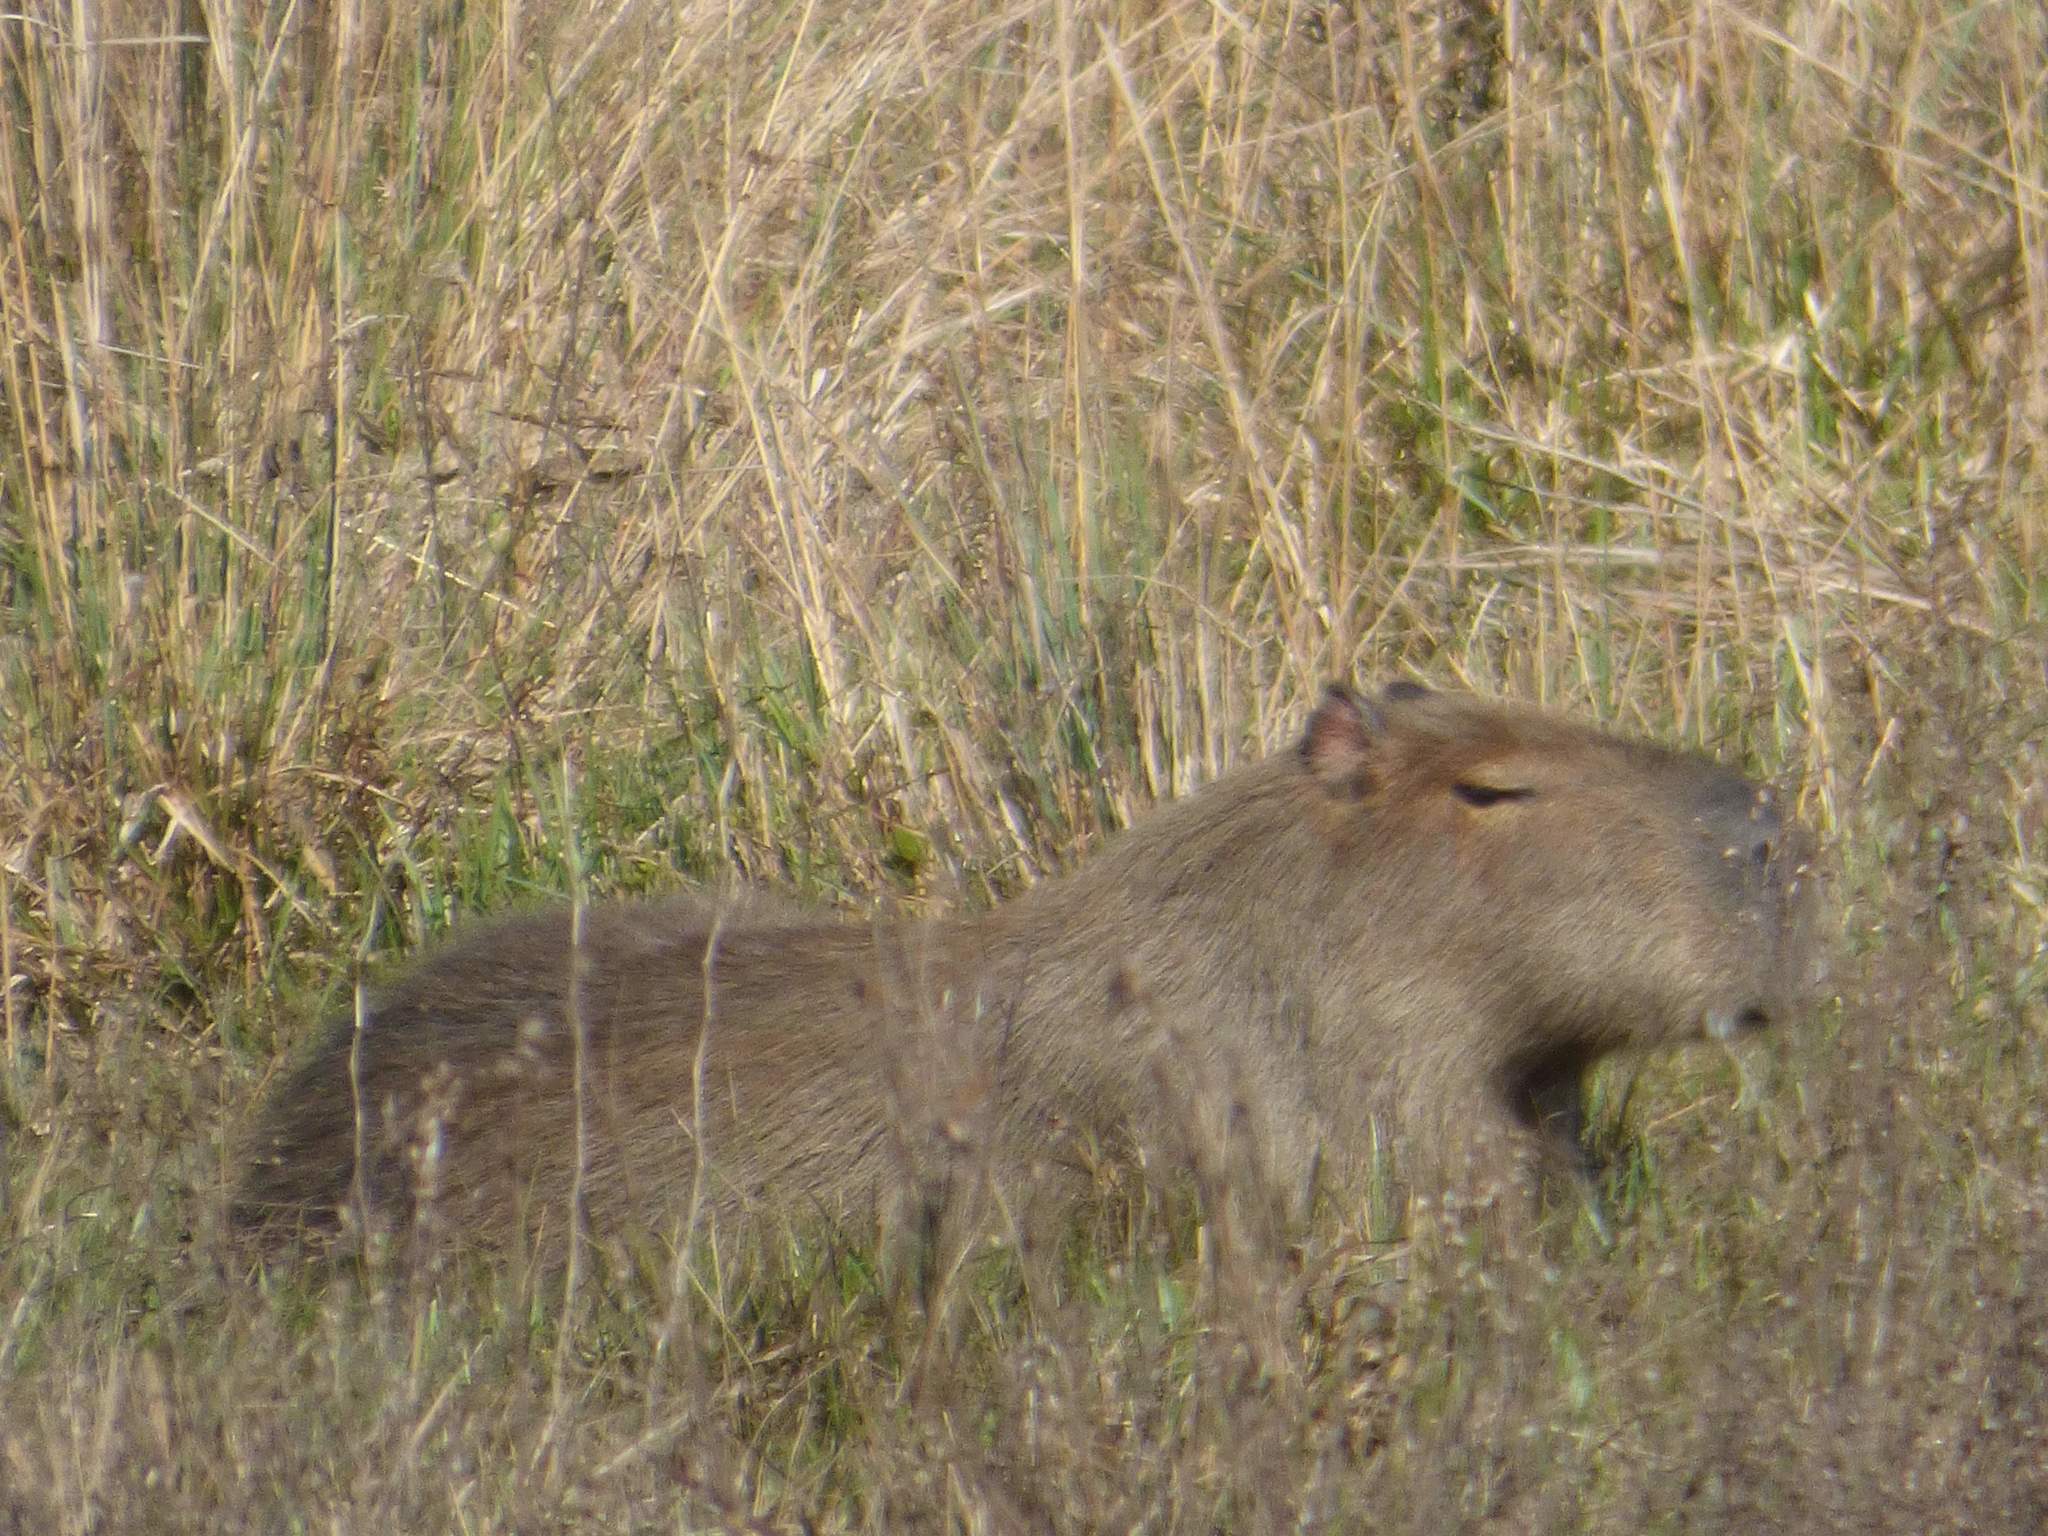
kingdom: Animalia
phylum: Chordata
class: Mammalia
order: Rodentia
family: Caviidae
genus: Hydrochoerus
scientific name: Hydrochoerus hydrochaeris
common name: Capybara
